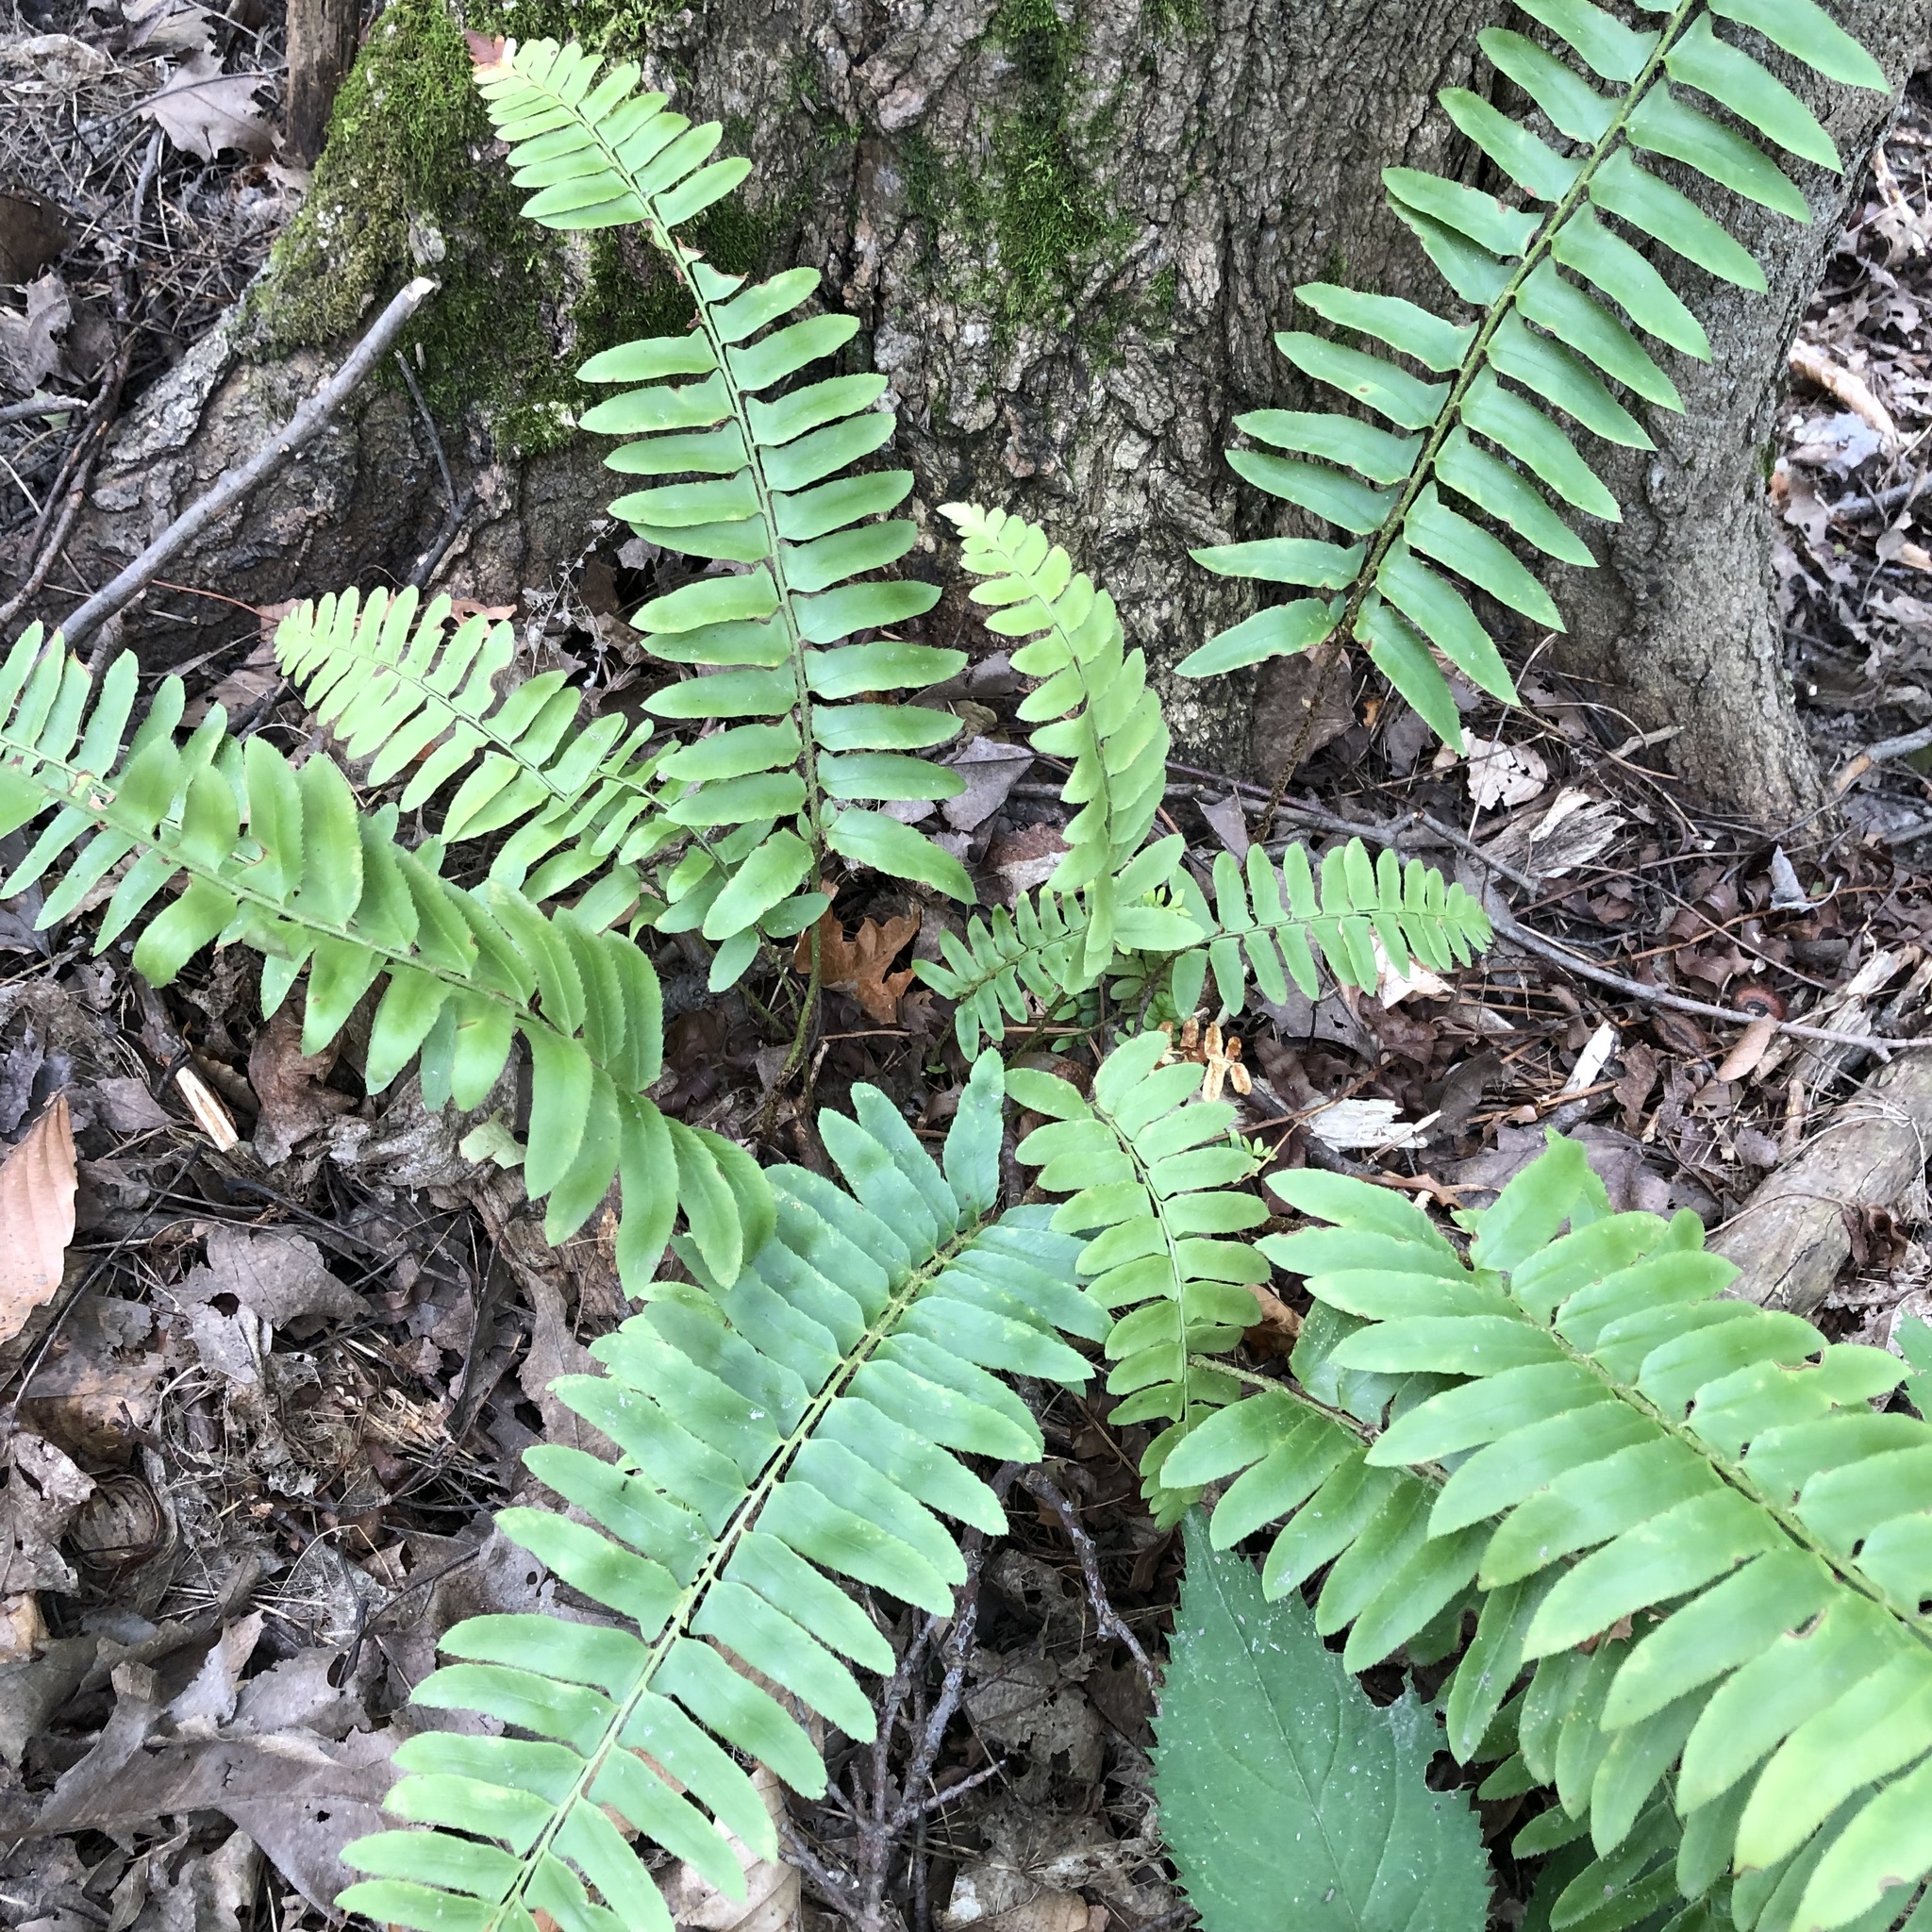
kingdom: Plantae
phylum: Tracheophyta
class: Polypodiopsida
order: Polypodiales
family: Dryopteridaceae
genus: Polystichum
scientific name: Polystichum acrostichoides
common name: Christmas fern
